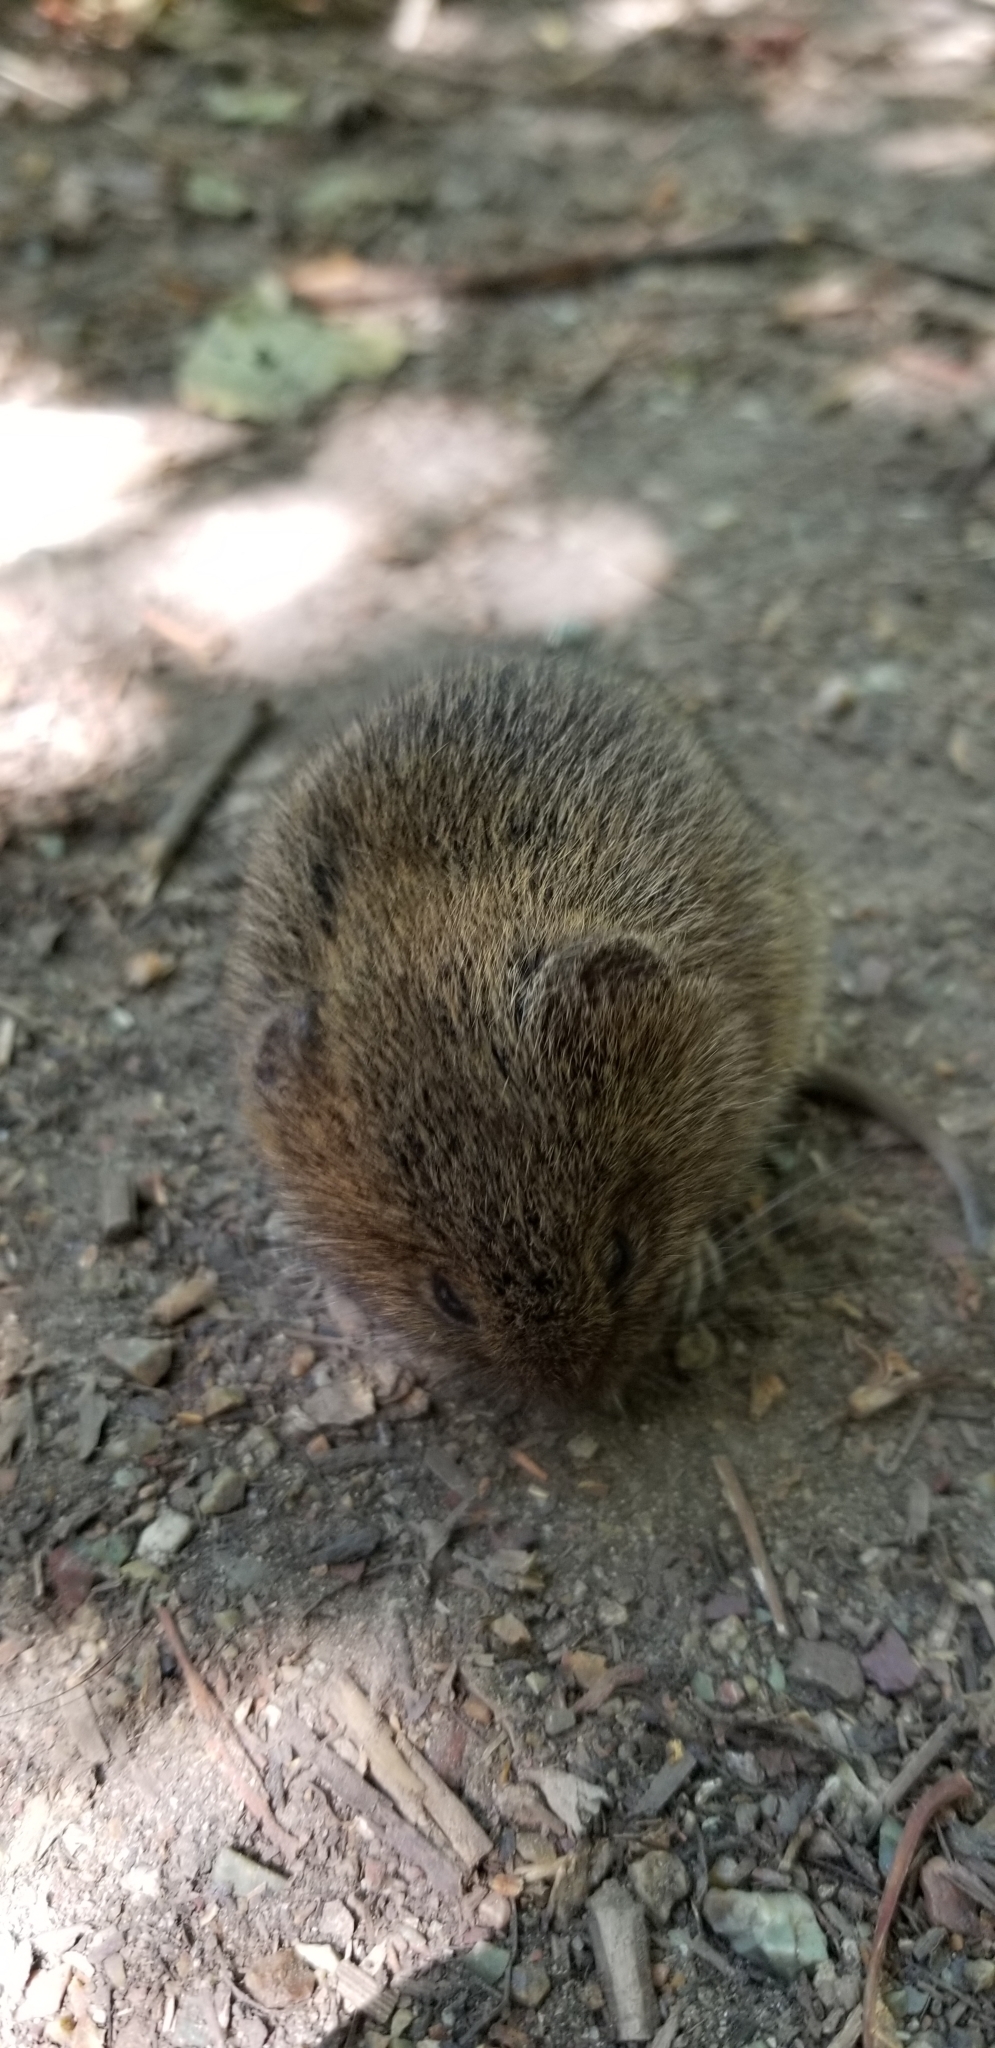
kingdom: Animalia
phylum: Chordata
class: Mammalia
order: Rodentia
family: Cricetidae
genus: Microtus
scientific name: Microtus californicus
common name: California vole
